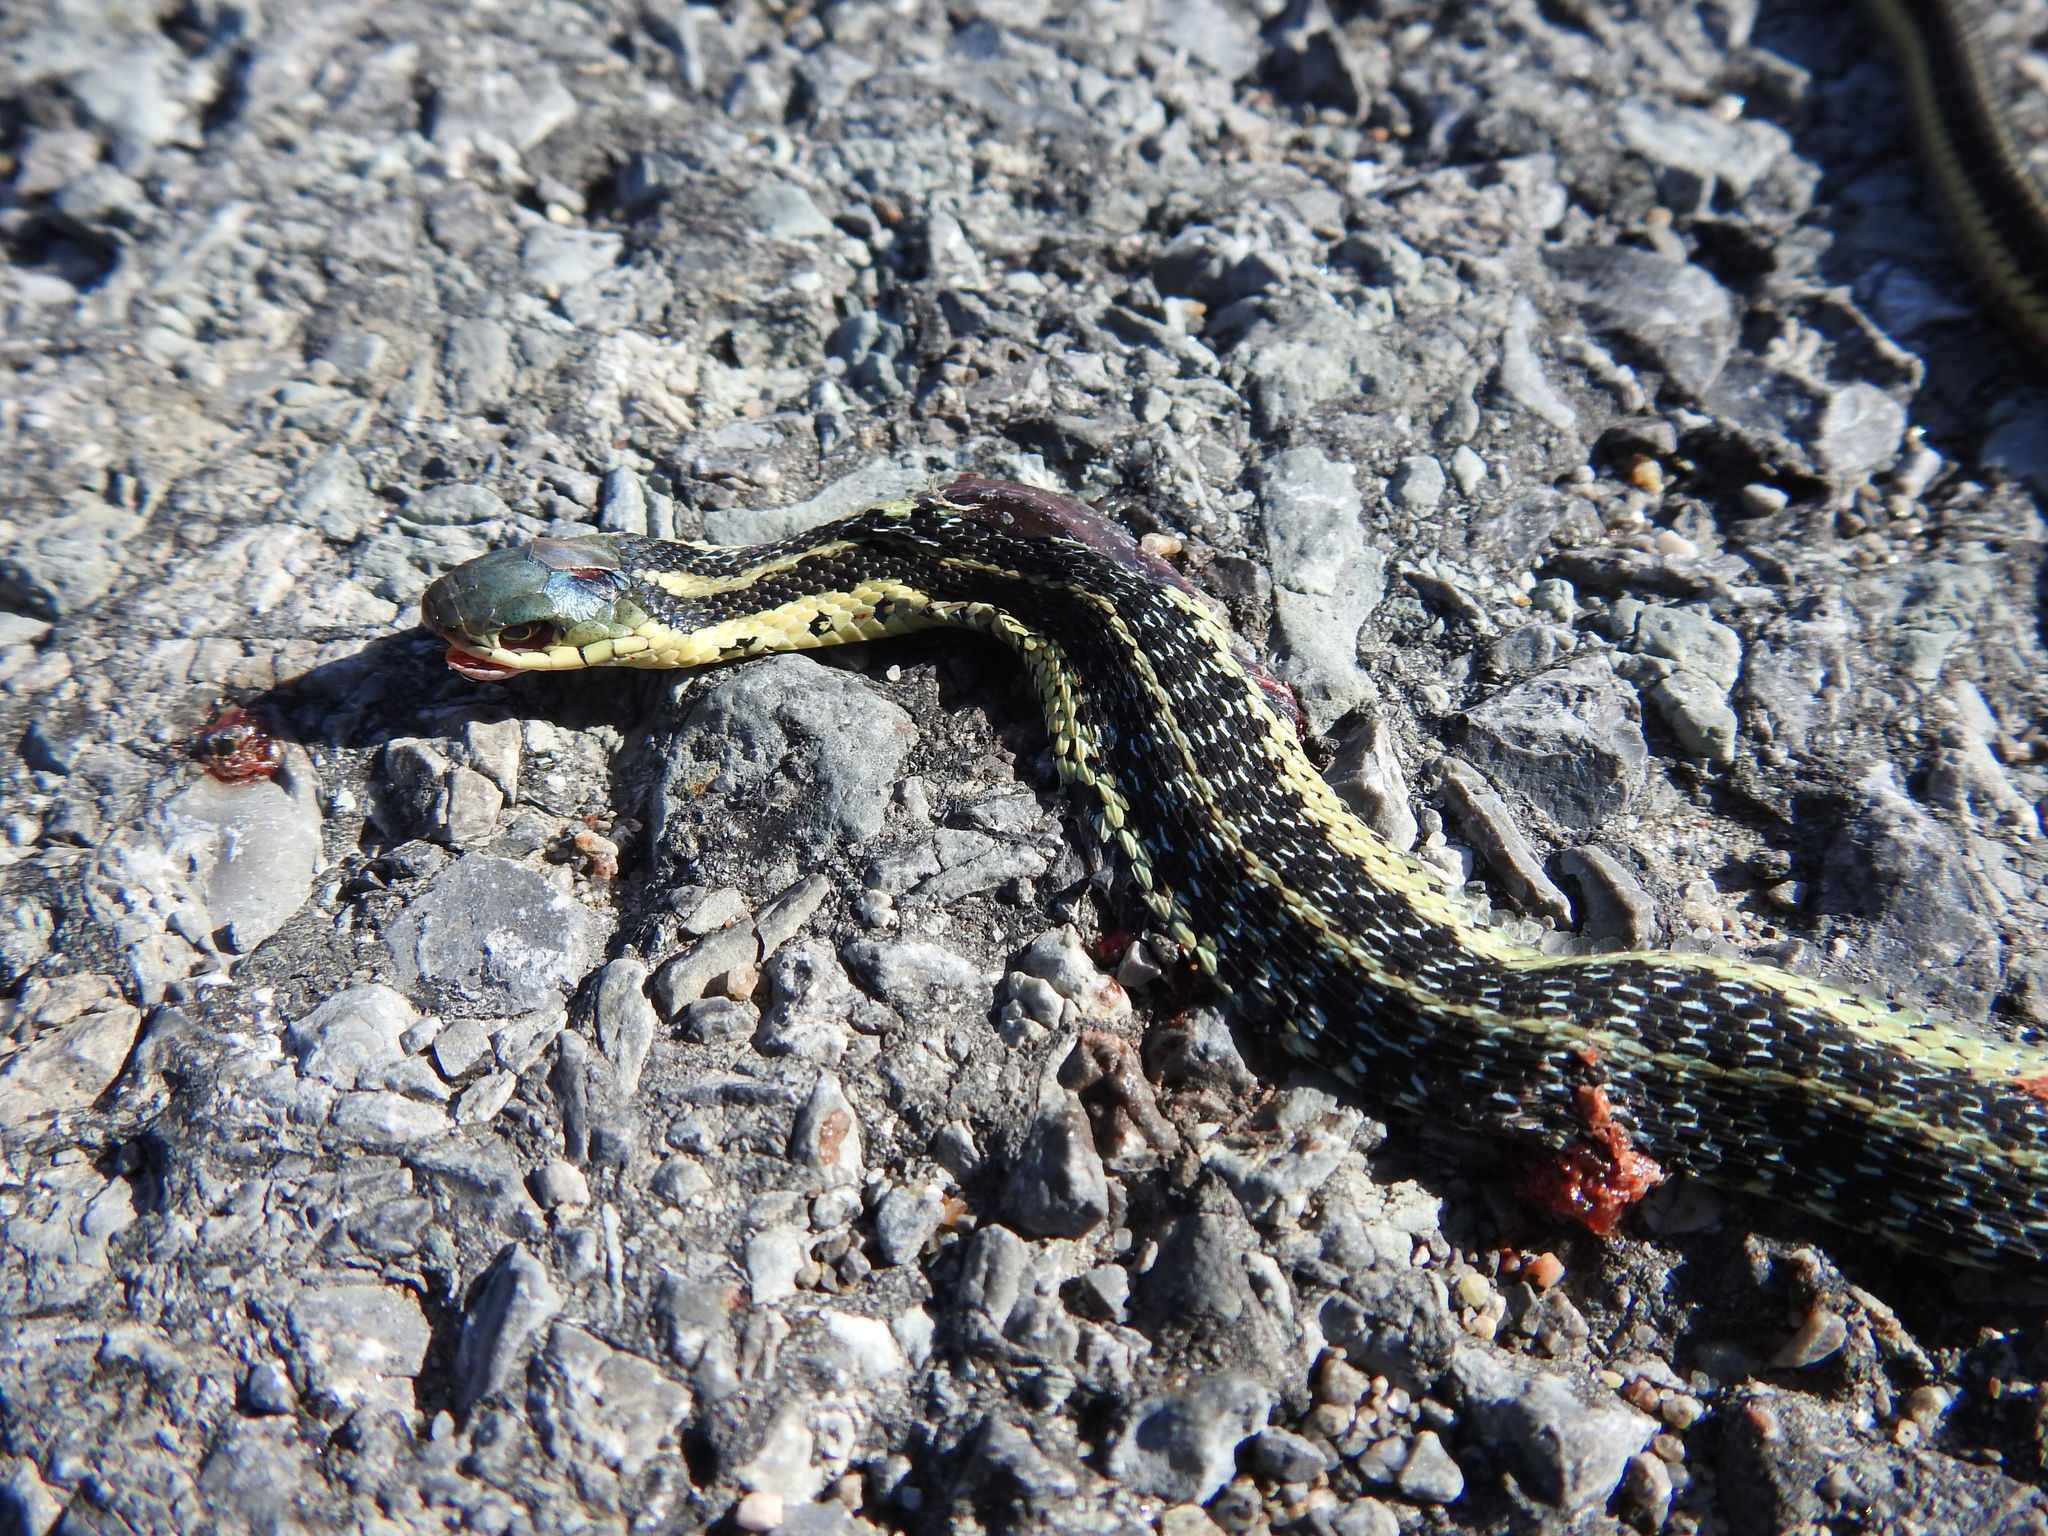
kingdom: Animalia
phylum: Chordata
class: Squamata
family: Colubridae
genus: Thamnophis
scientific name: Thamnophis sirtalis
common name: Common garter snake
